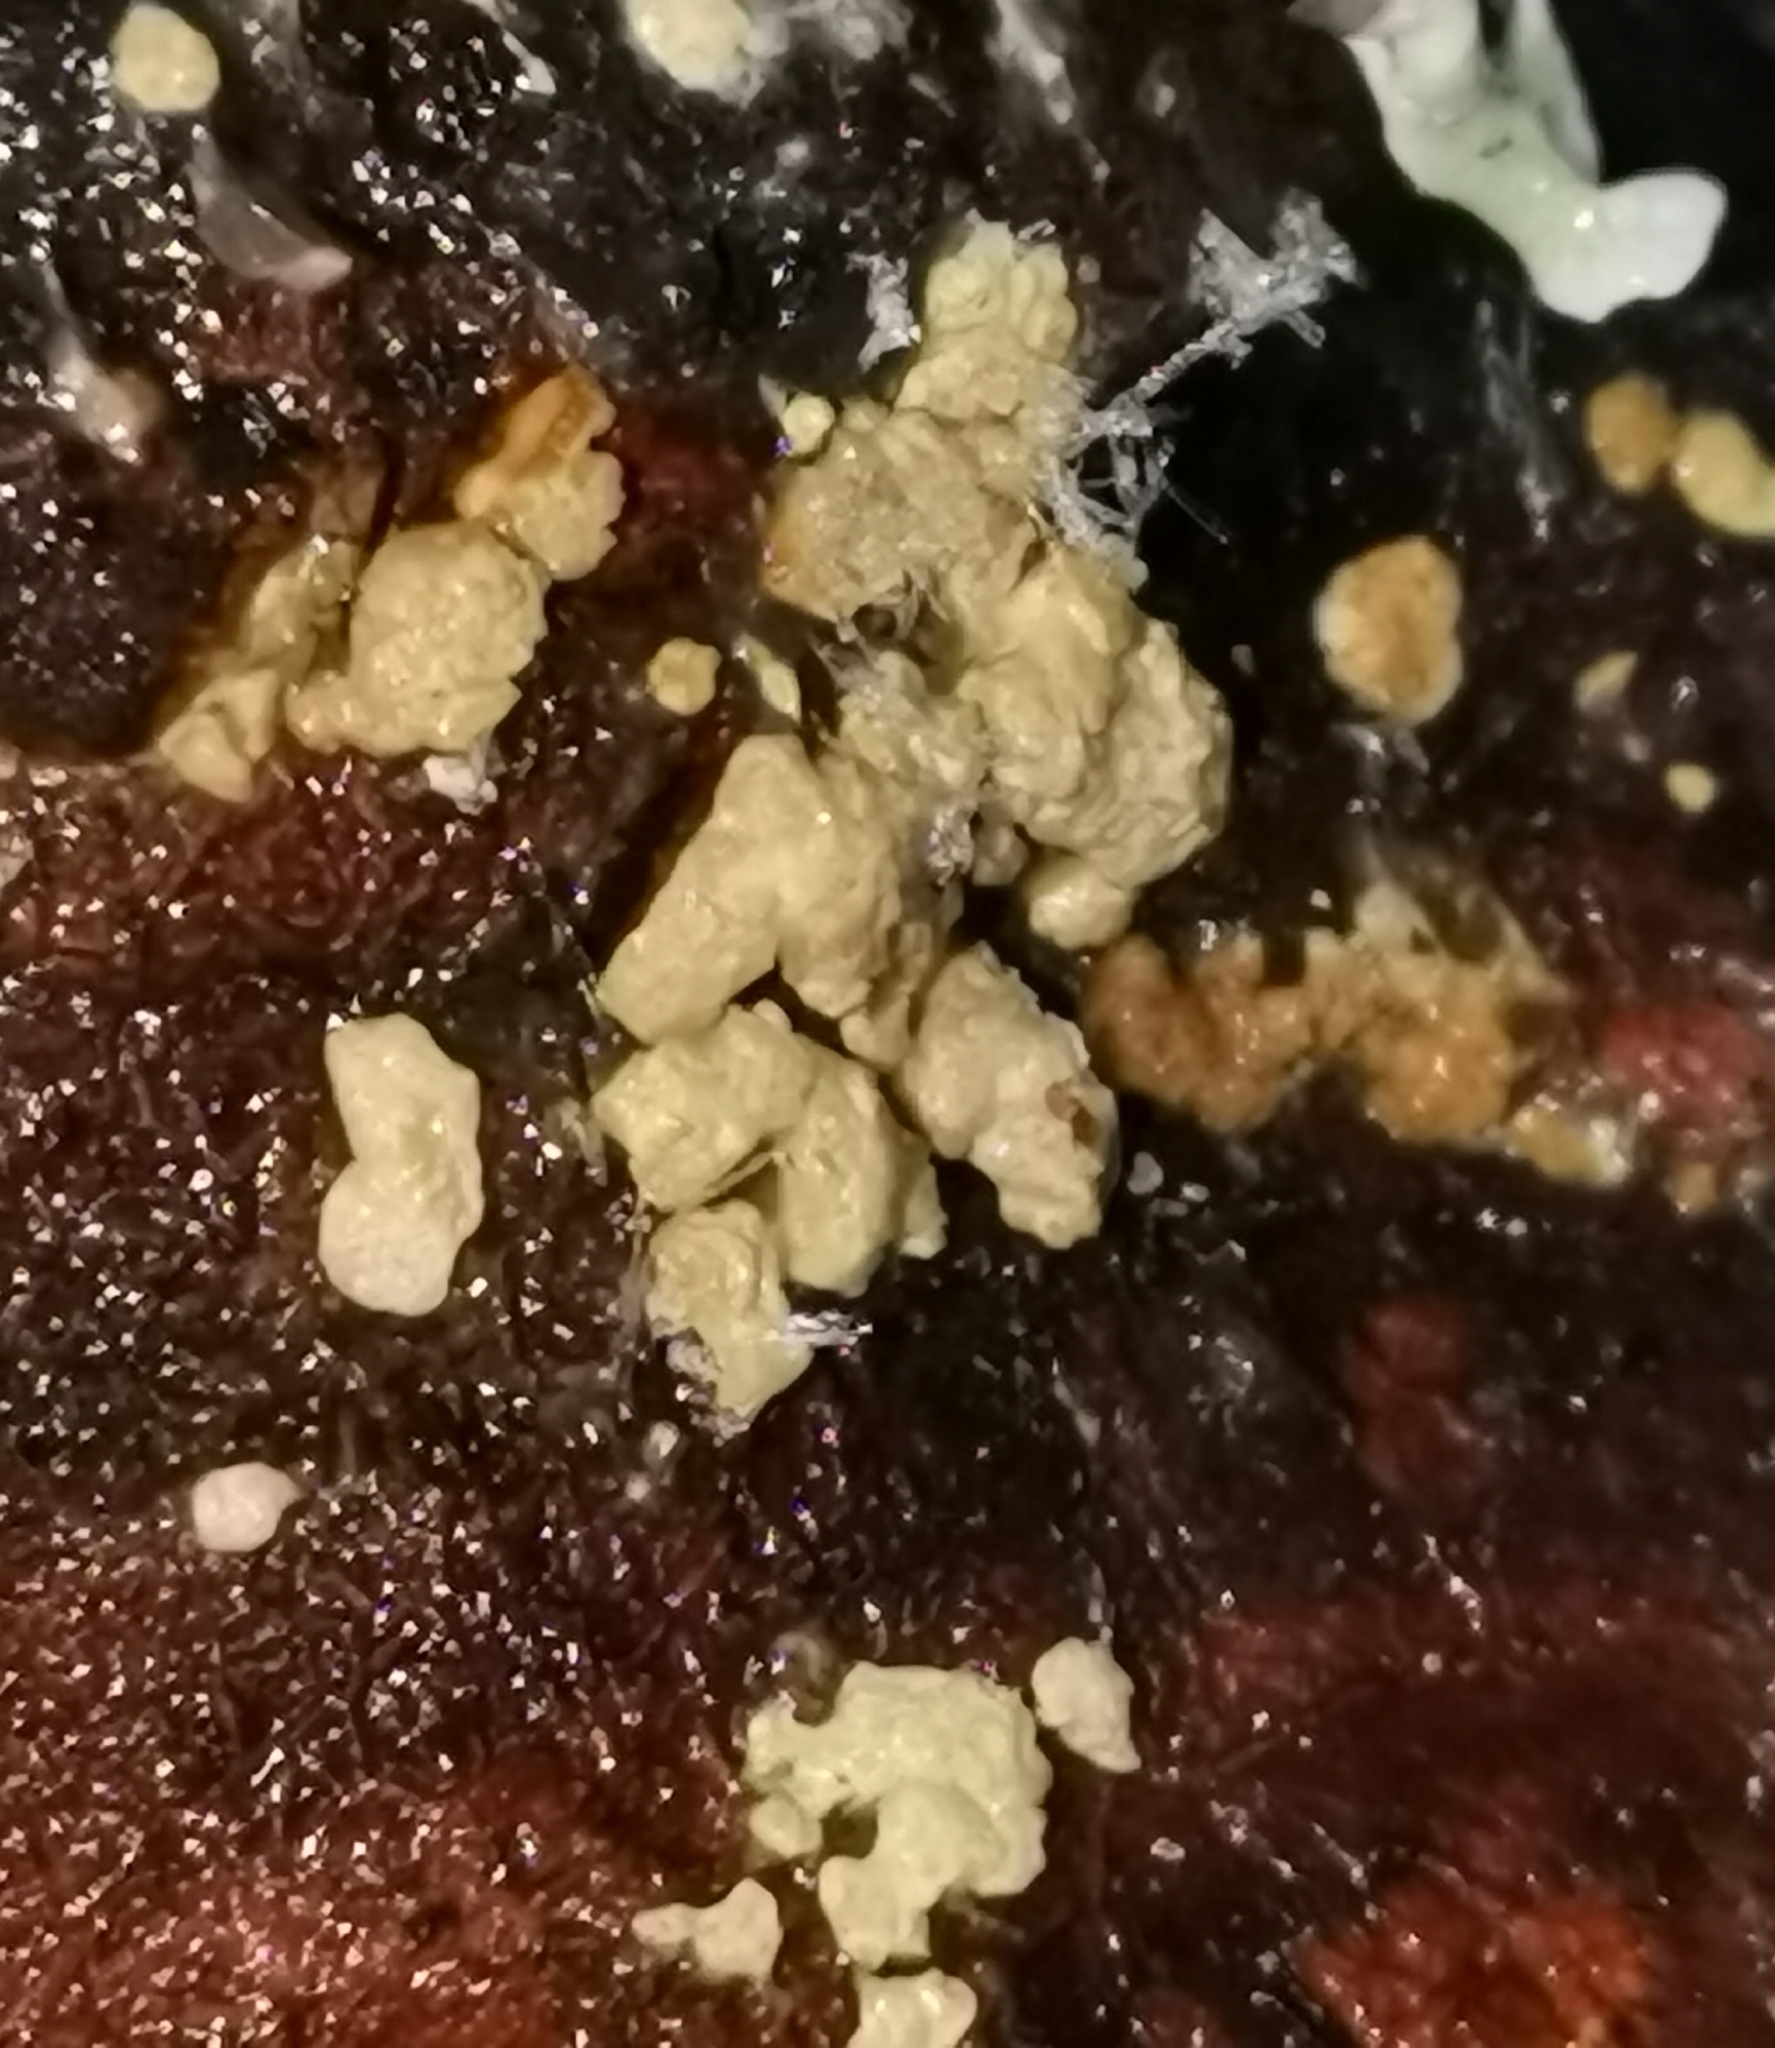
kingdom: Fungi
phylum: Ascomycota
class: Sordariomycetes
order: Hypocreales
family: Hypocreaceae
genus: Trichoderma
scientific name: Trichoderma pulvinatum
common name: Ochre cushion
